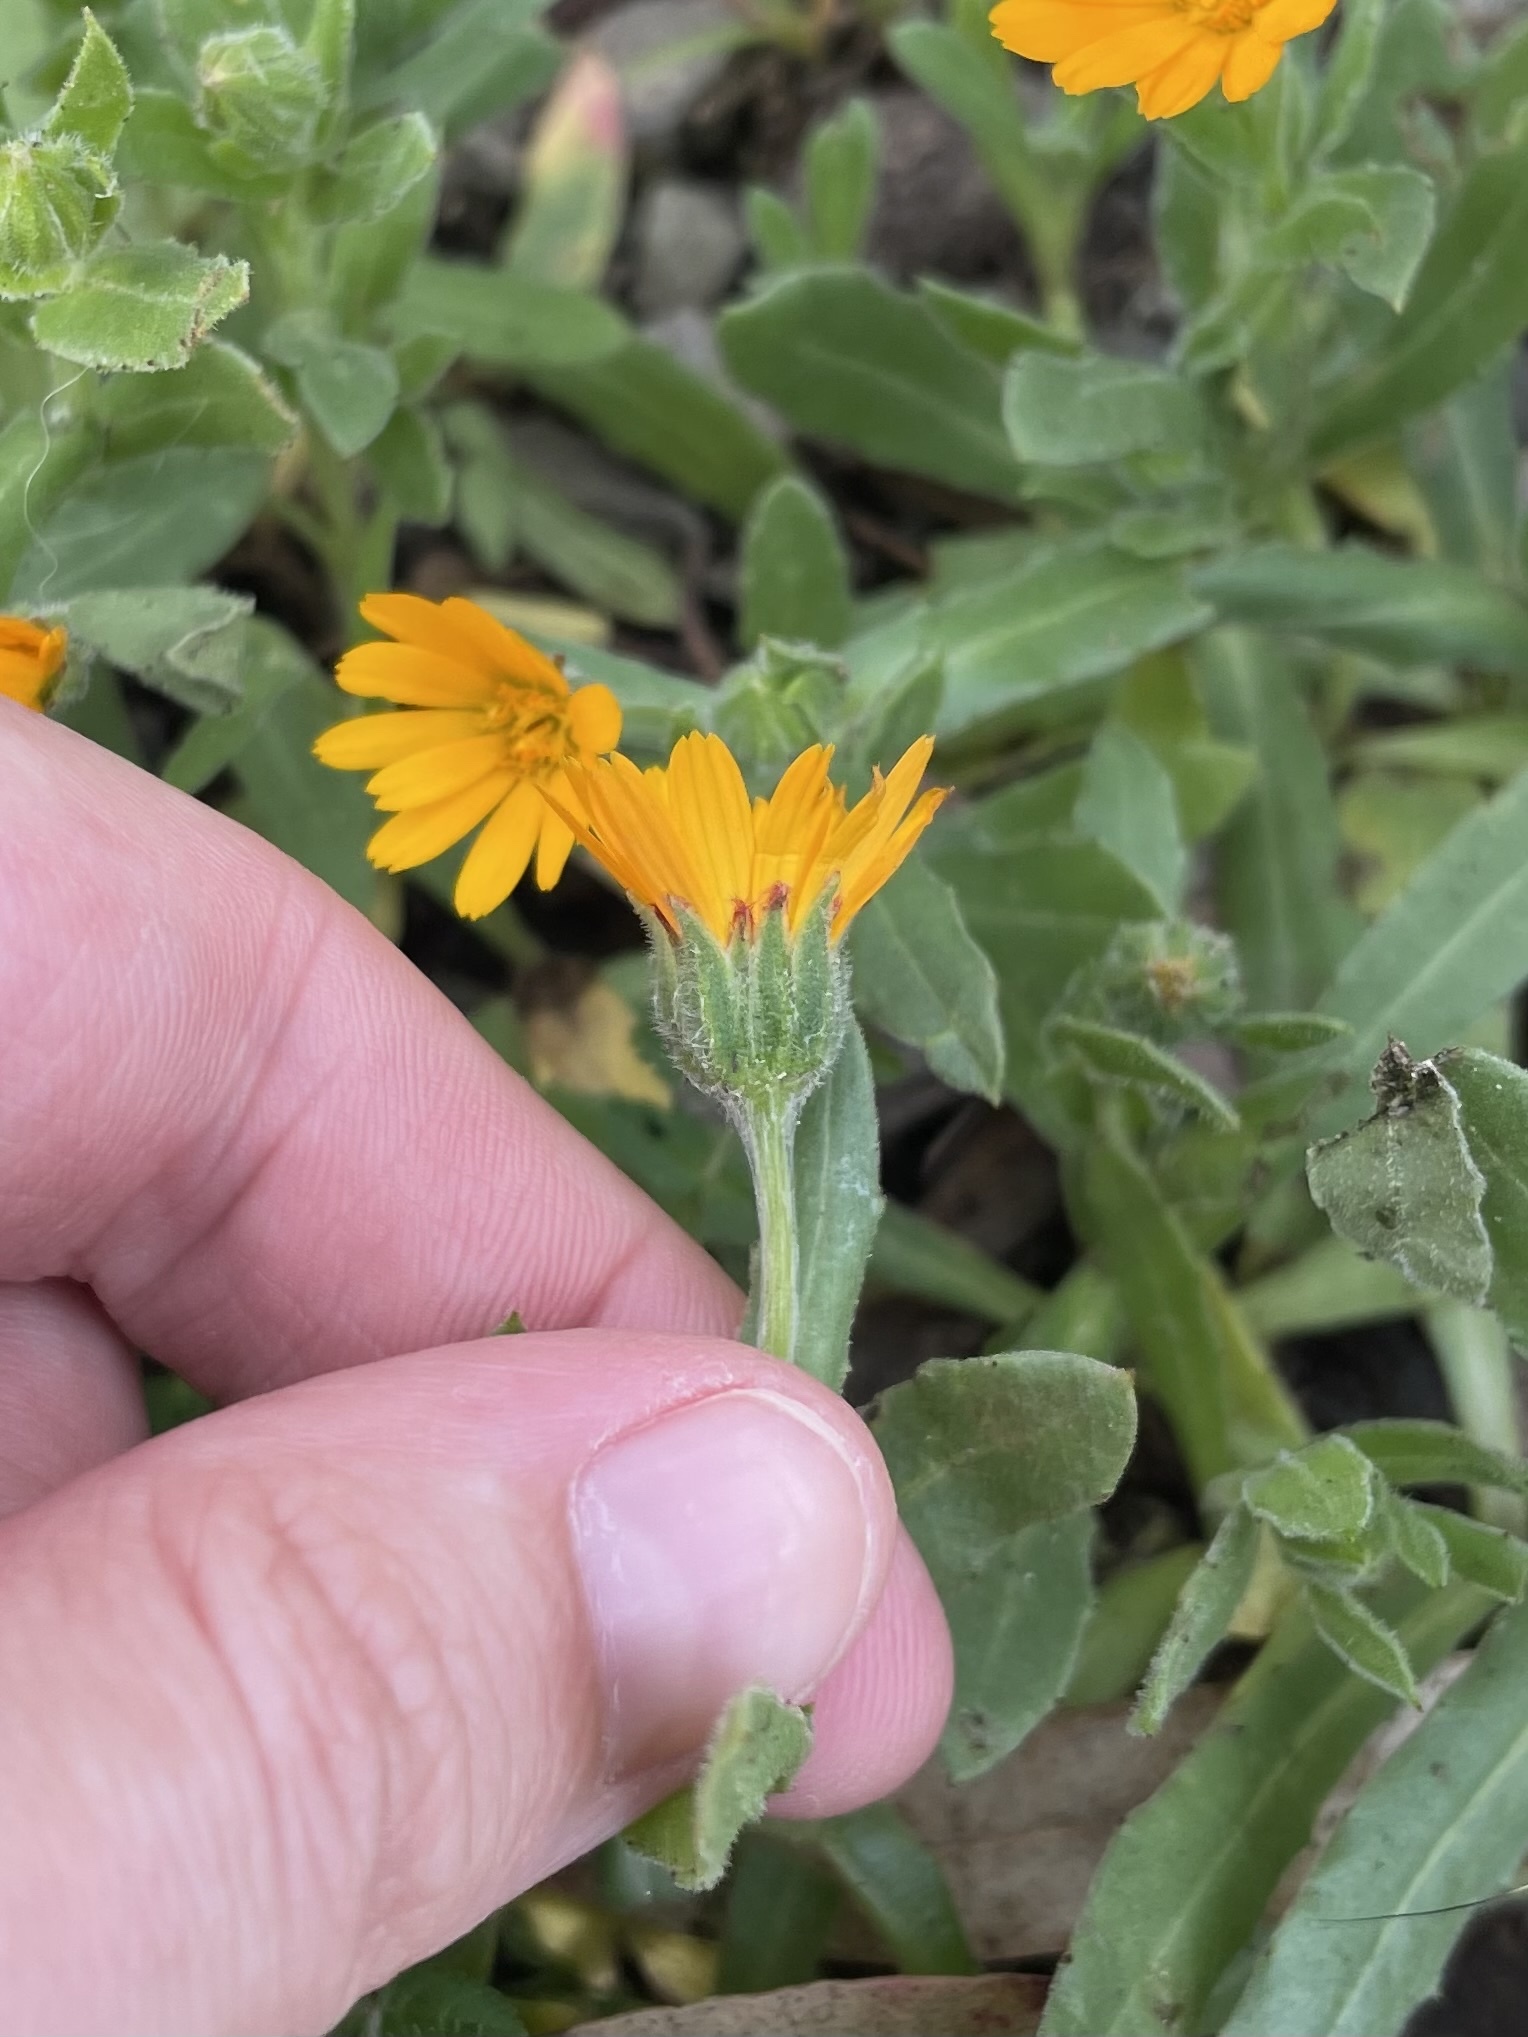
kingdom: Plantae
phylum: Tracheophyta
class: Magnoliopsida
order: Asterales
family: Asteraceae
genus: Calendula
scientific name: Calendula arvensis
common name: Field marigold
